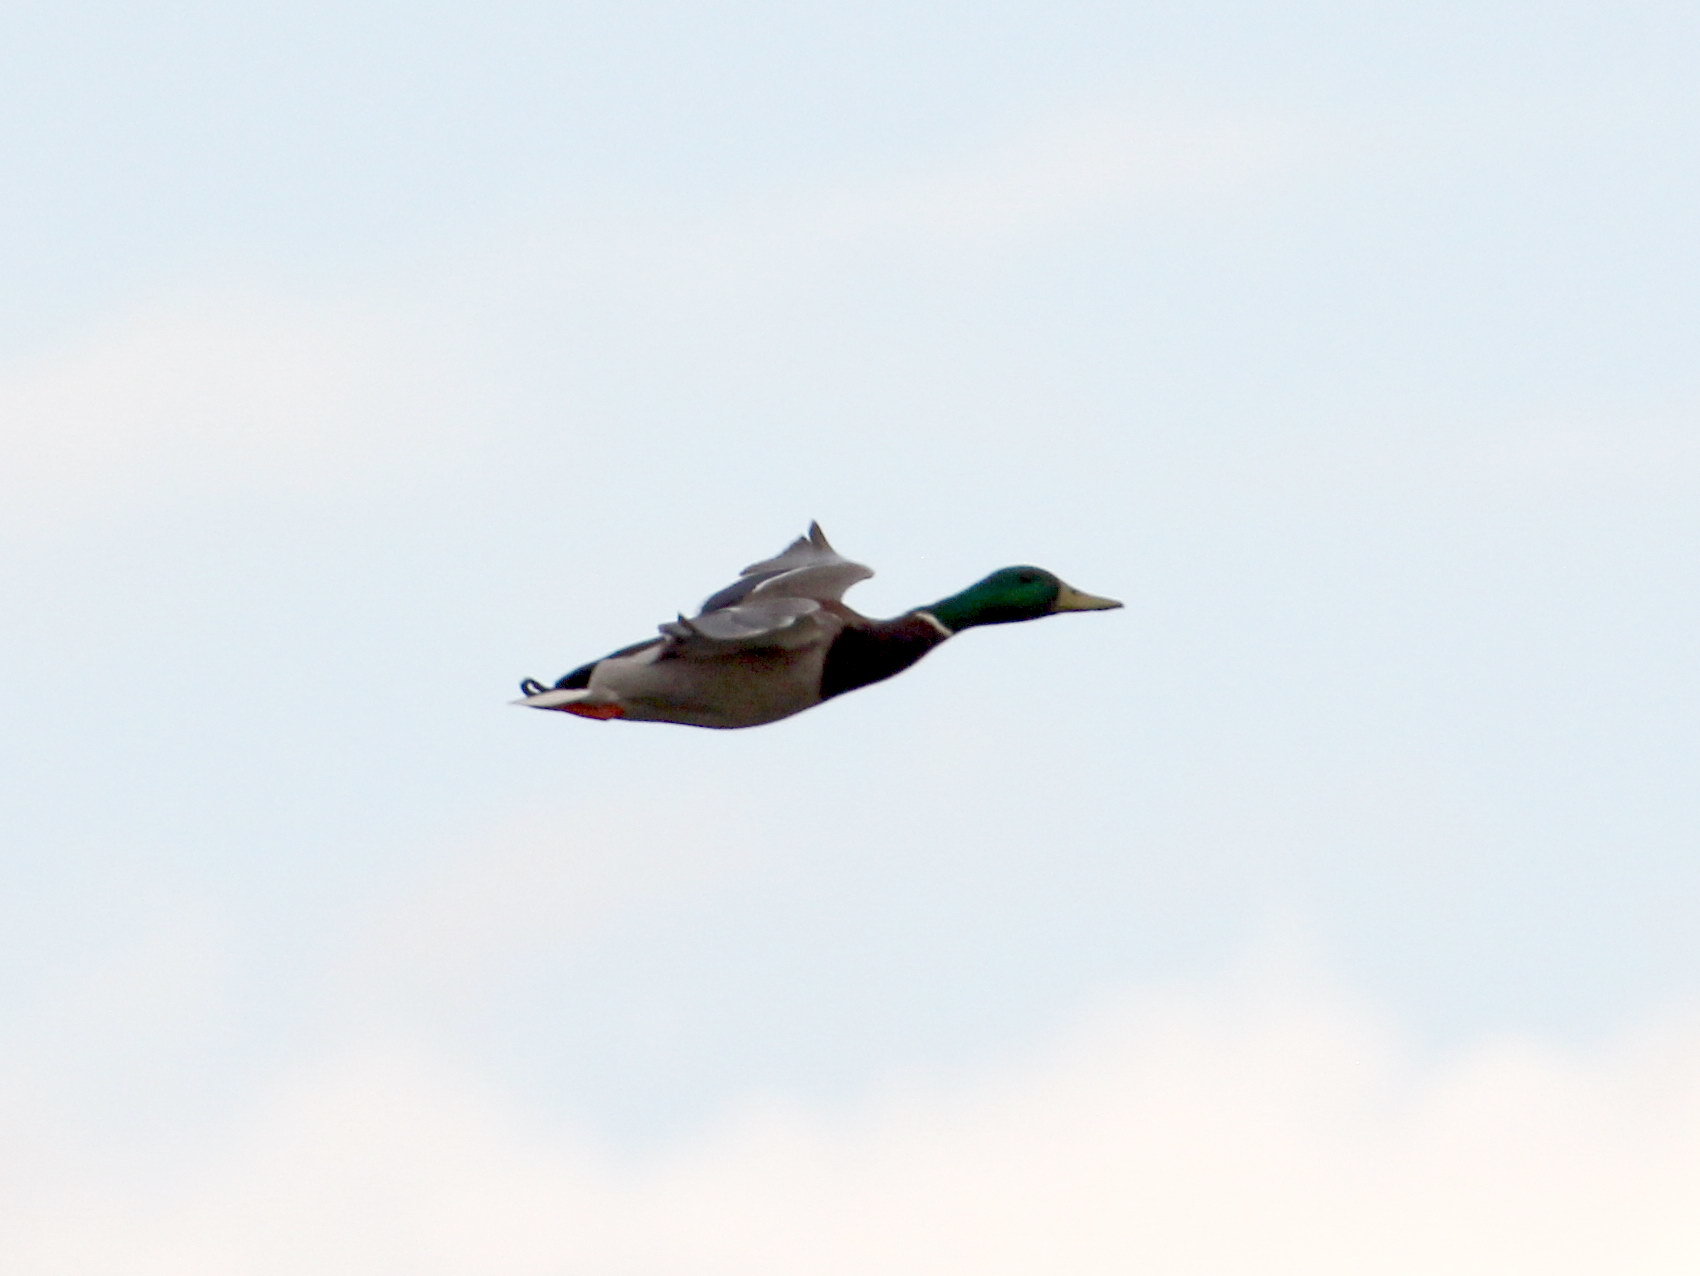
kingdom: Animalia
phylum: Chordata
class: Aves
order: Anseriformes
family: Anatidae
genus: Anas
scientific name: Anas platyrhynchos
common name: Mallard
